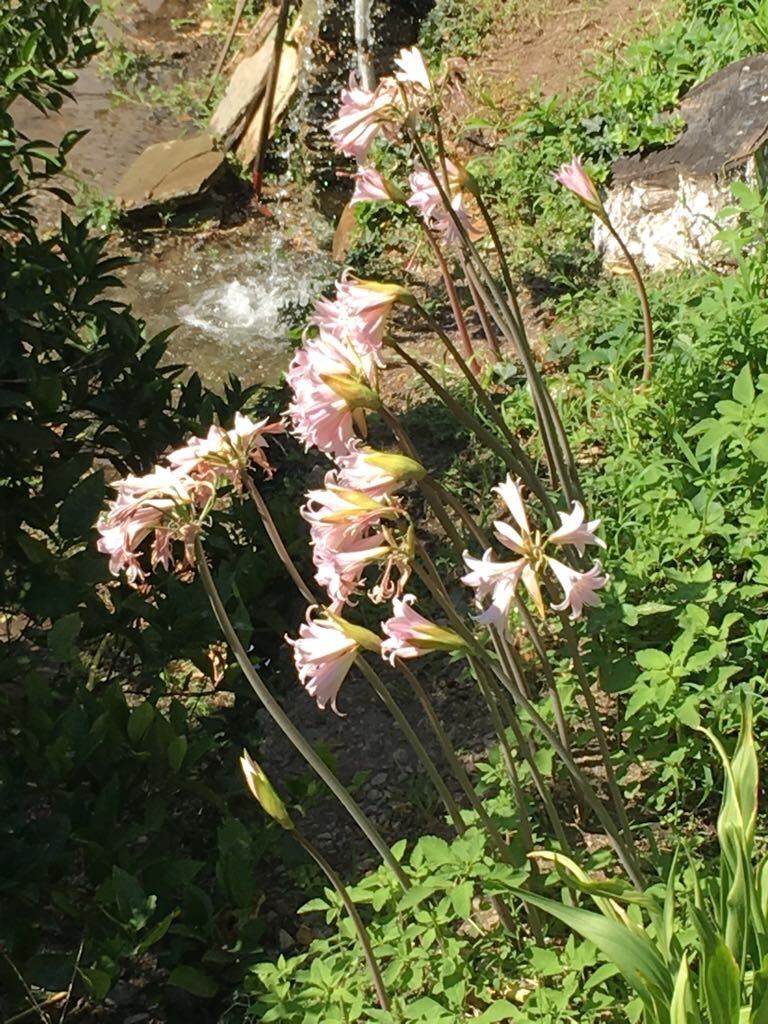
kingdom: Plantae
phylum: Tracheophyta
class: Liliopsida
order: Asparagales
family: Amaryllidaceae
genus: Amaryllis
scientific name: Amaryllis belladonna
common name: Jersey lily
